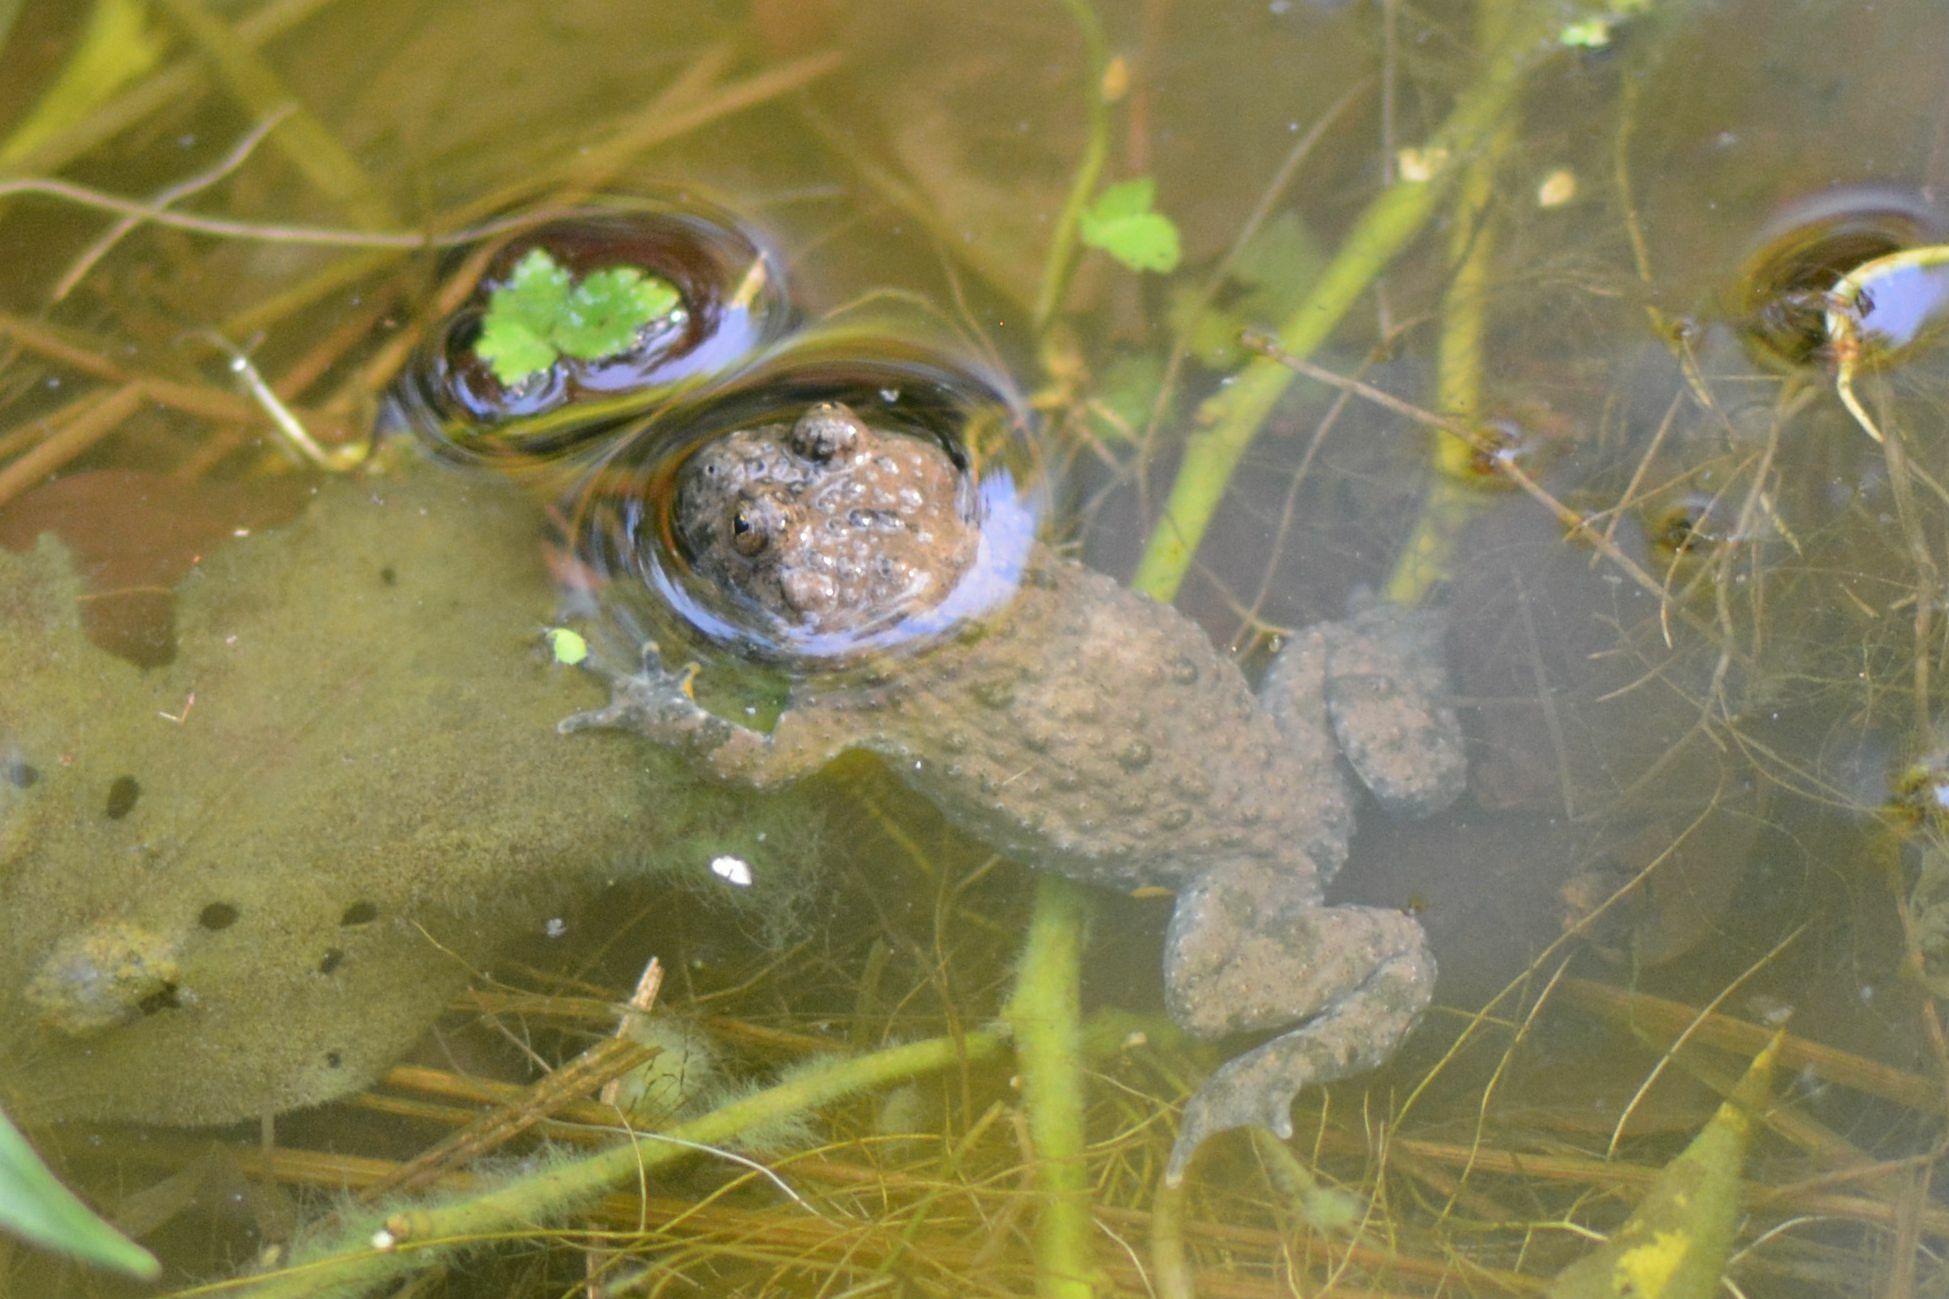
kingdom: Animalia
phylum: Chordata
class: Amphibia
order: Anura
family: Bombinatoridae
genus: Bombina
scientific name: Bombina variegata
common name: Yellow-bellied toad
